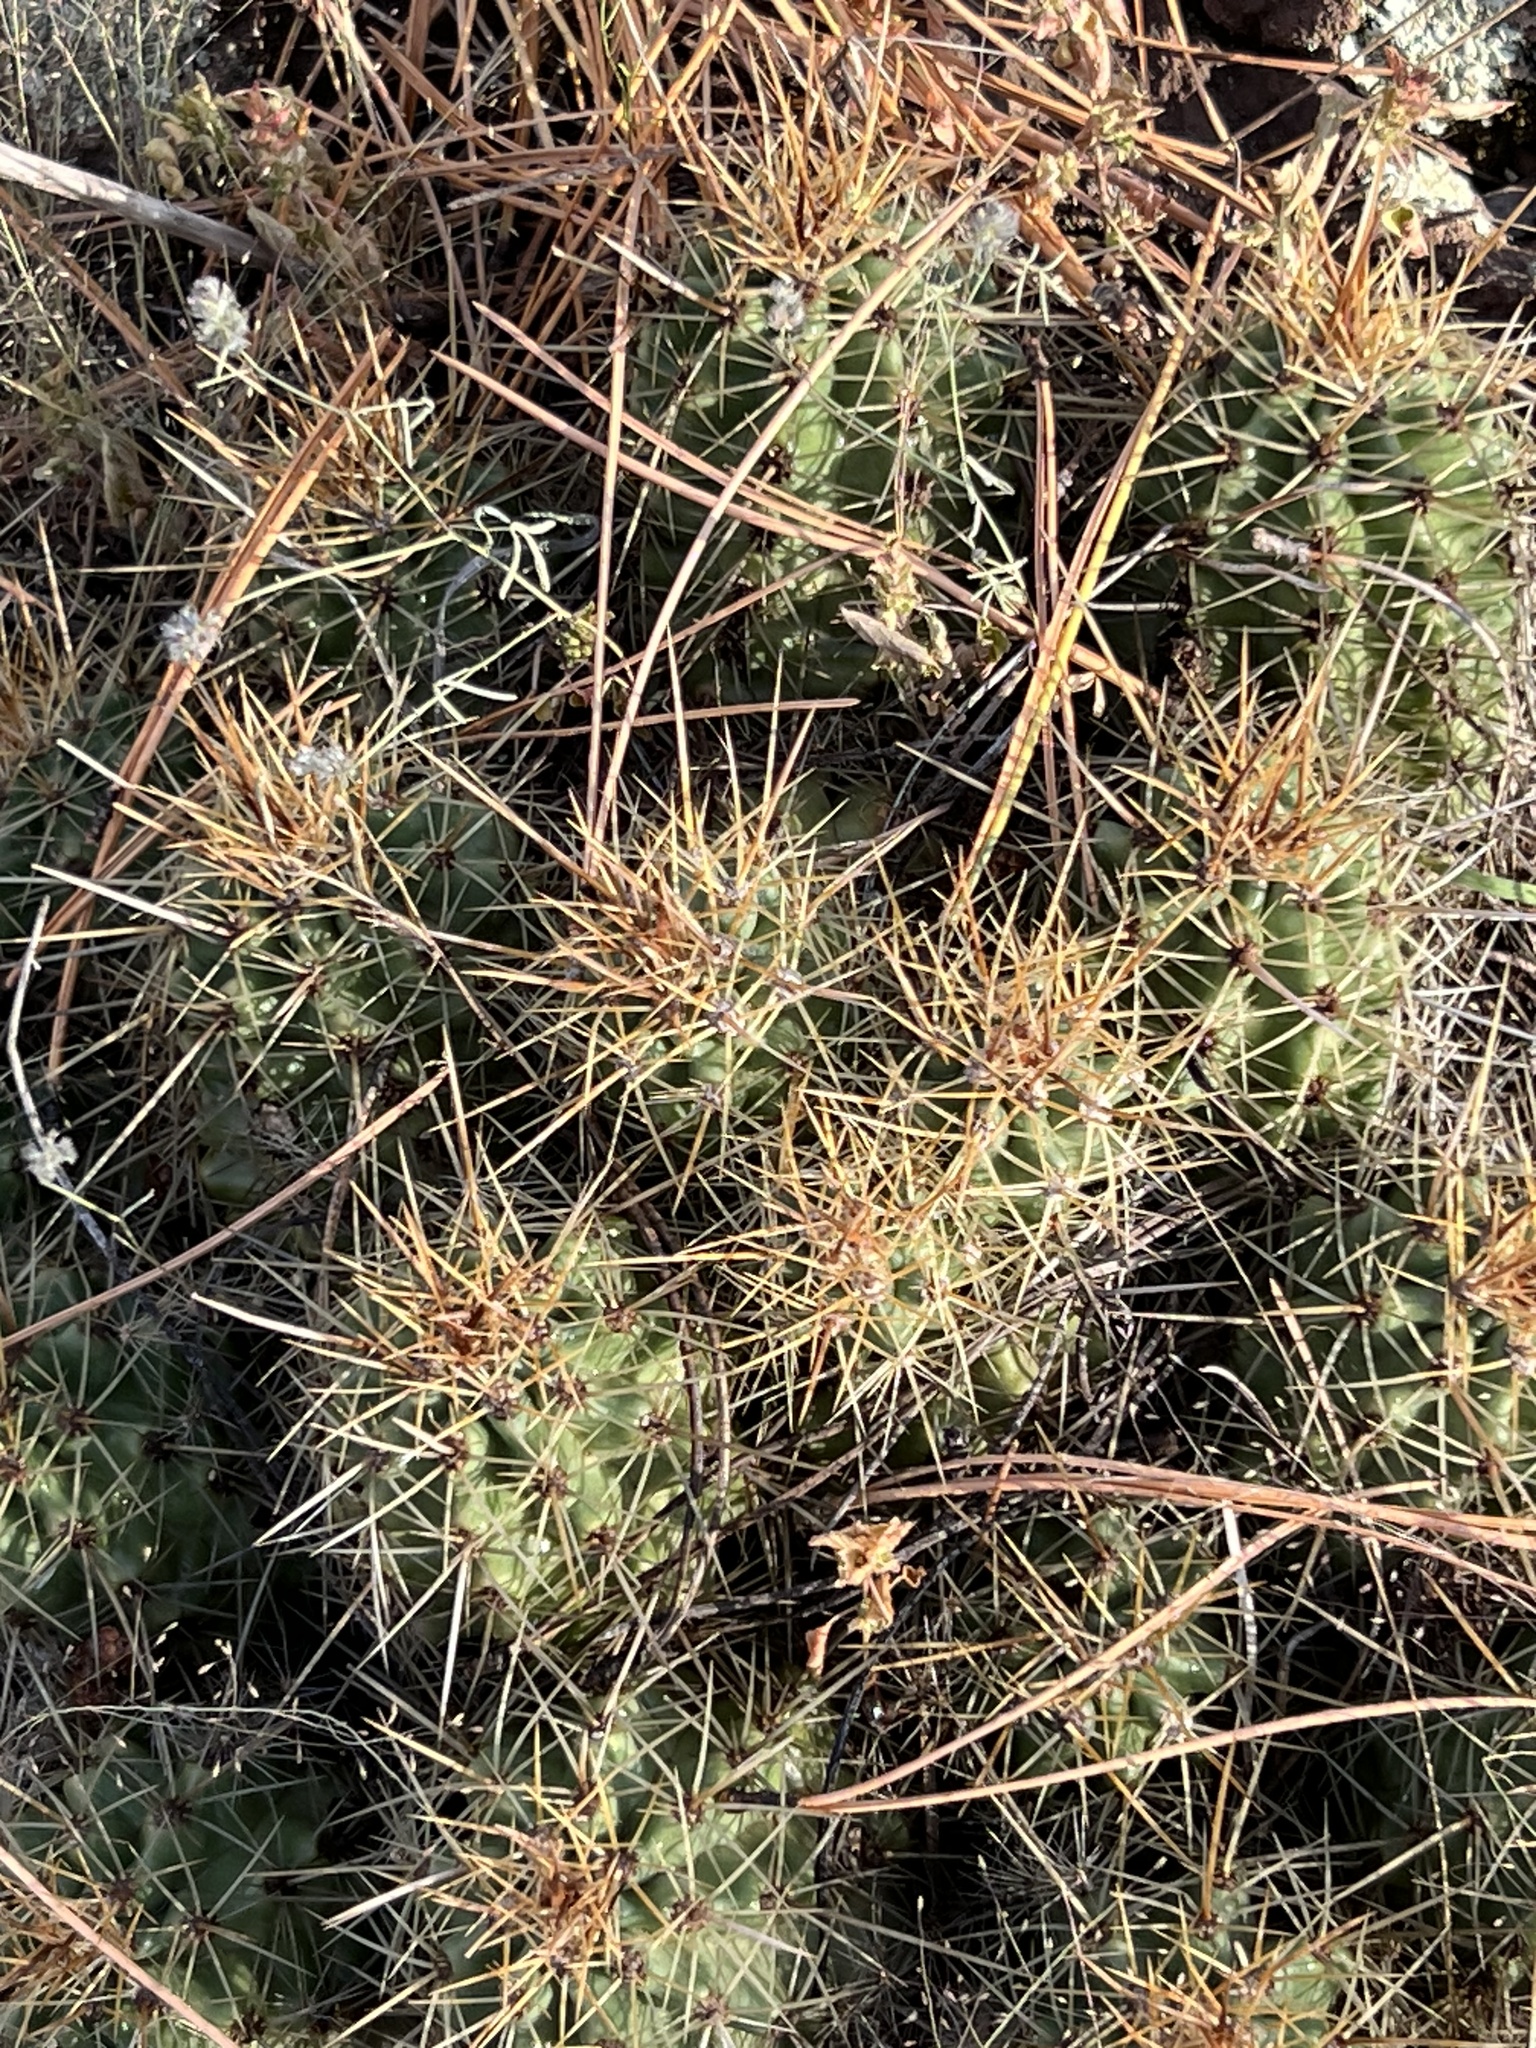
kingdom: Plantae
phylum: Tracheophyta
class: Magnoliopsida
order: Caryophyllales
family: Cactaceae
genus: Echinocereus
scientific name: Echinocereus bakeri
